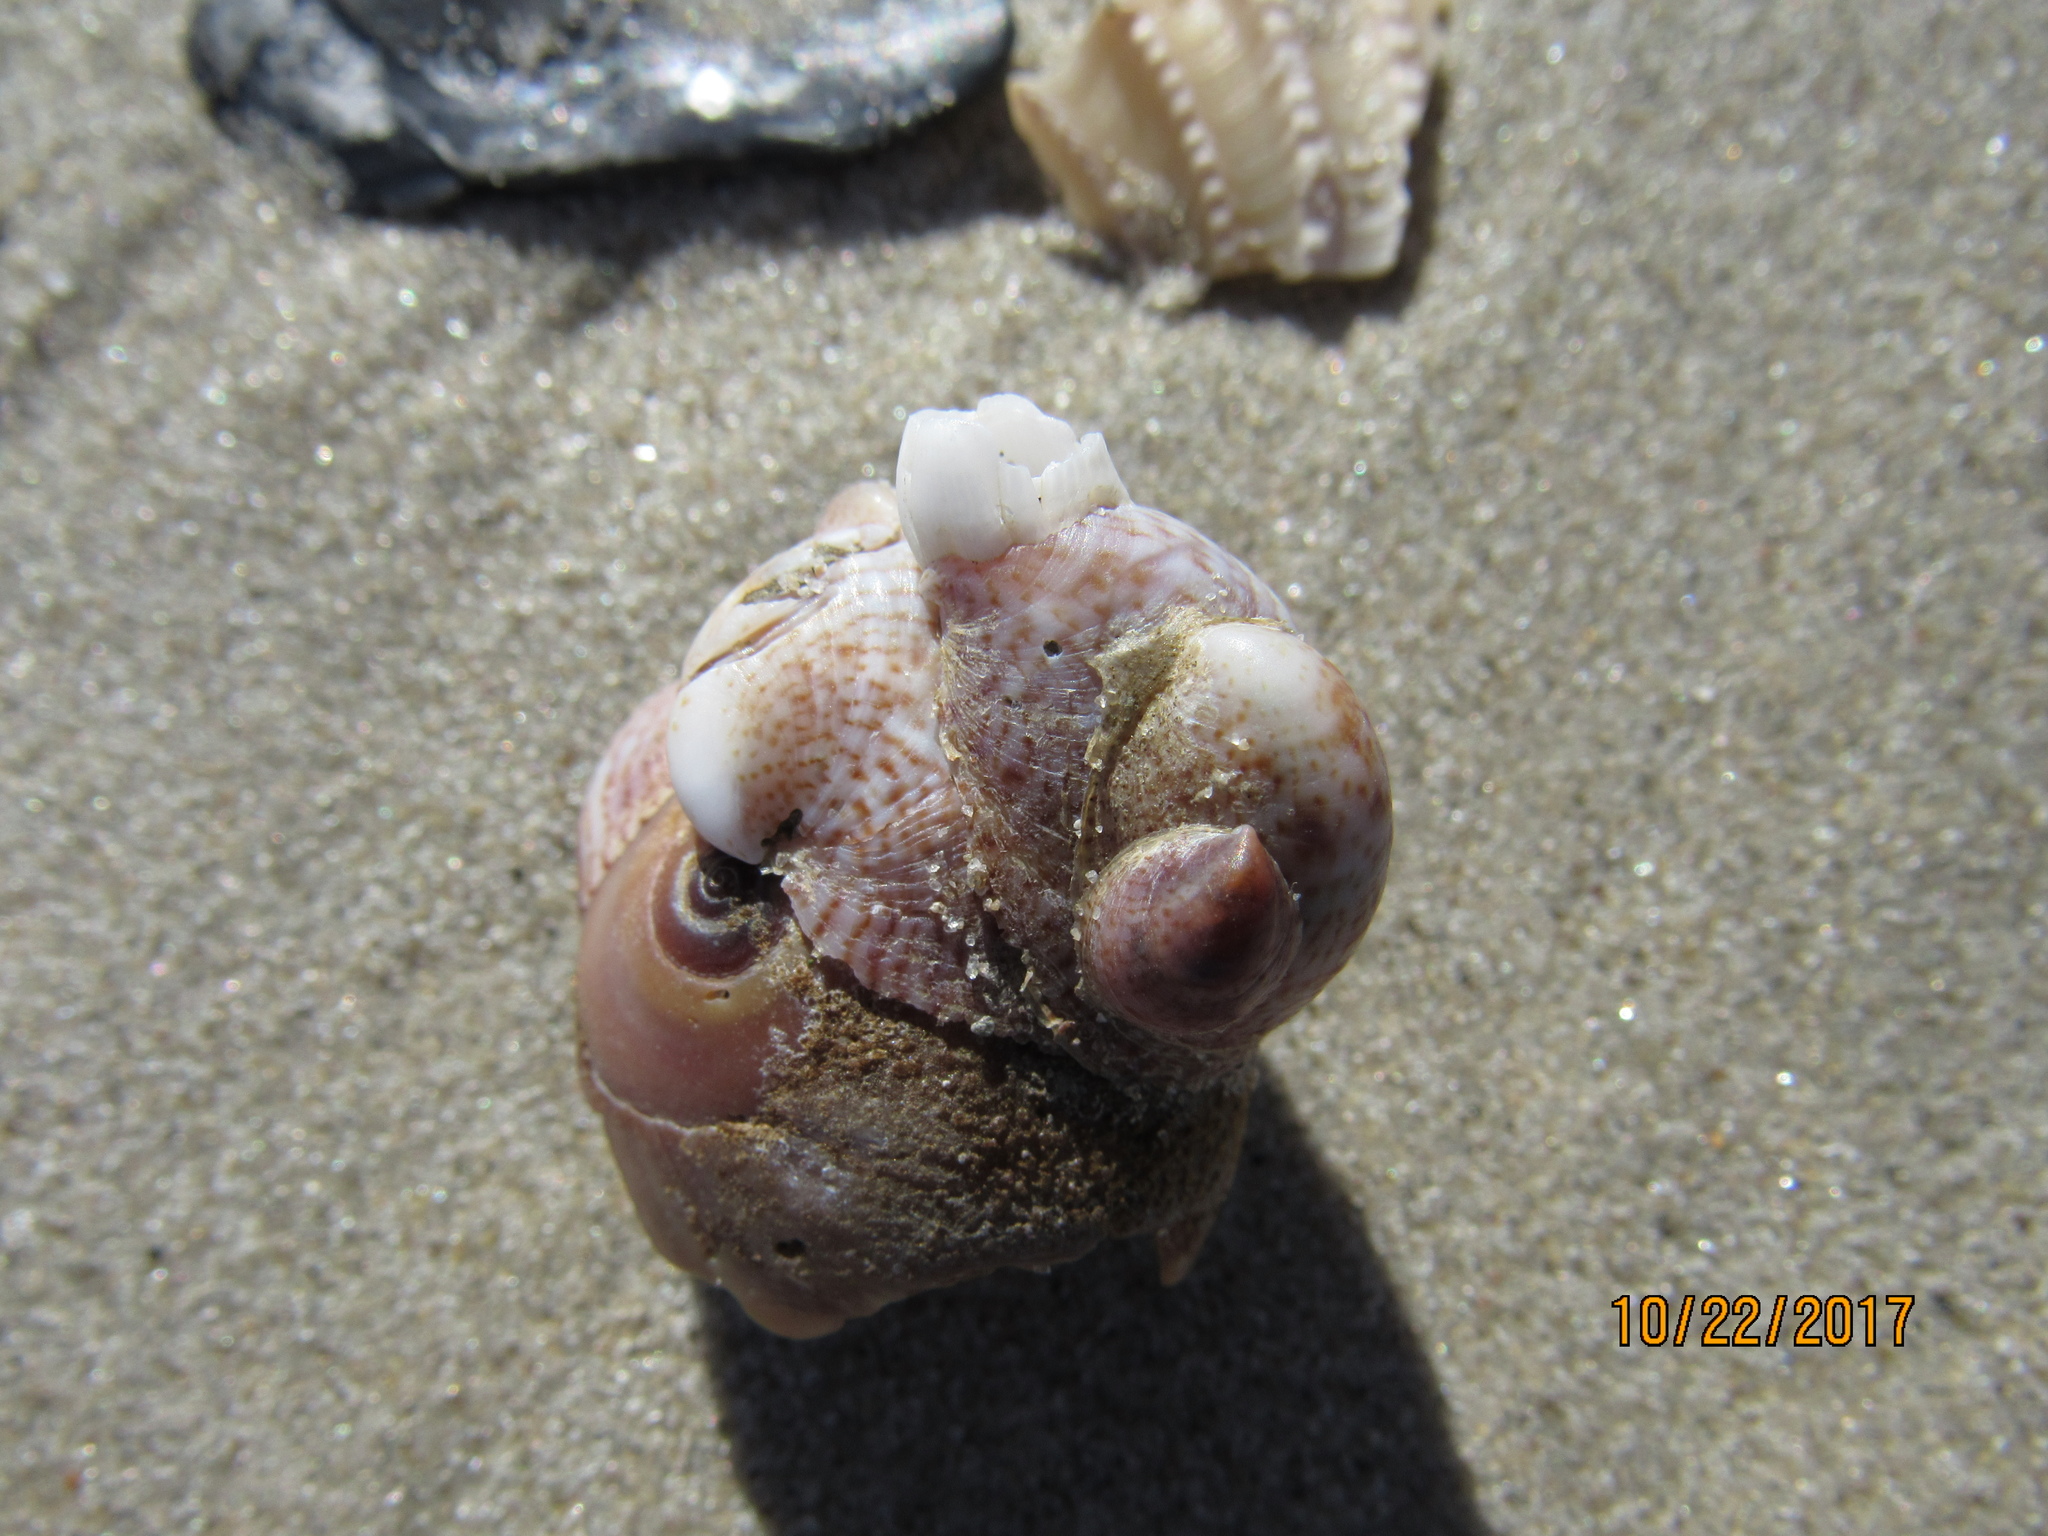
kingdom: Animalia
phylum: Mollusca
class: Gastropoda
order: Littorinimorpha
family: Calyptraeidae
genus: Crepidula
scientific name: Crepidula fornicata
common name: Slipper limpet
